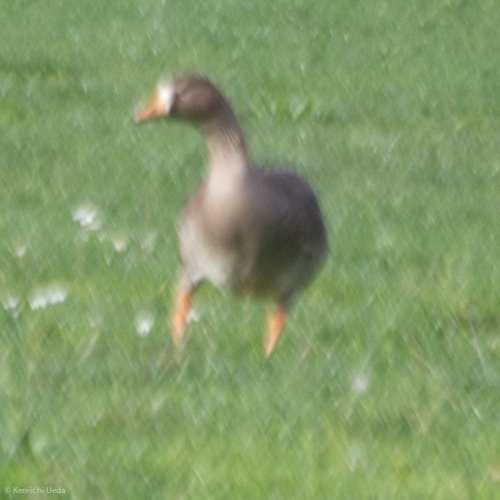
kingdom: Animalia
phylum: Chordata
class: Aves
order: Anseriformes
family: Anatidae
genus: Anser
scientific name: Anser albifrons
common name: Greater white-fronted goose
